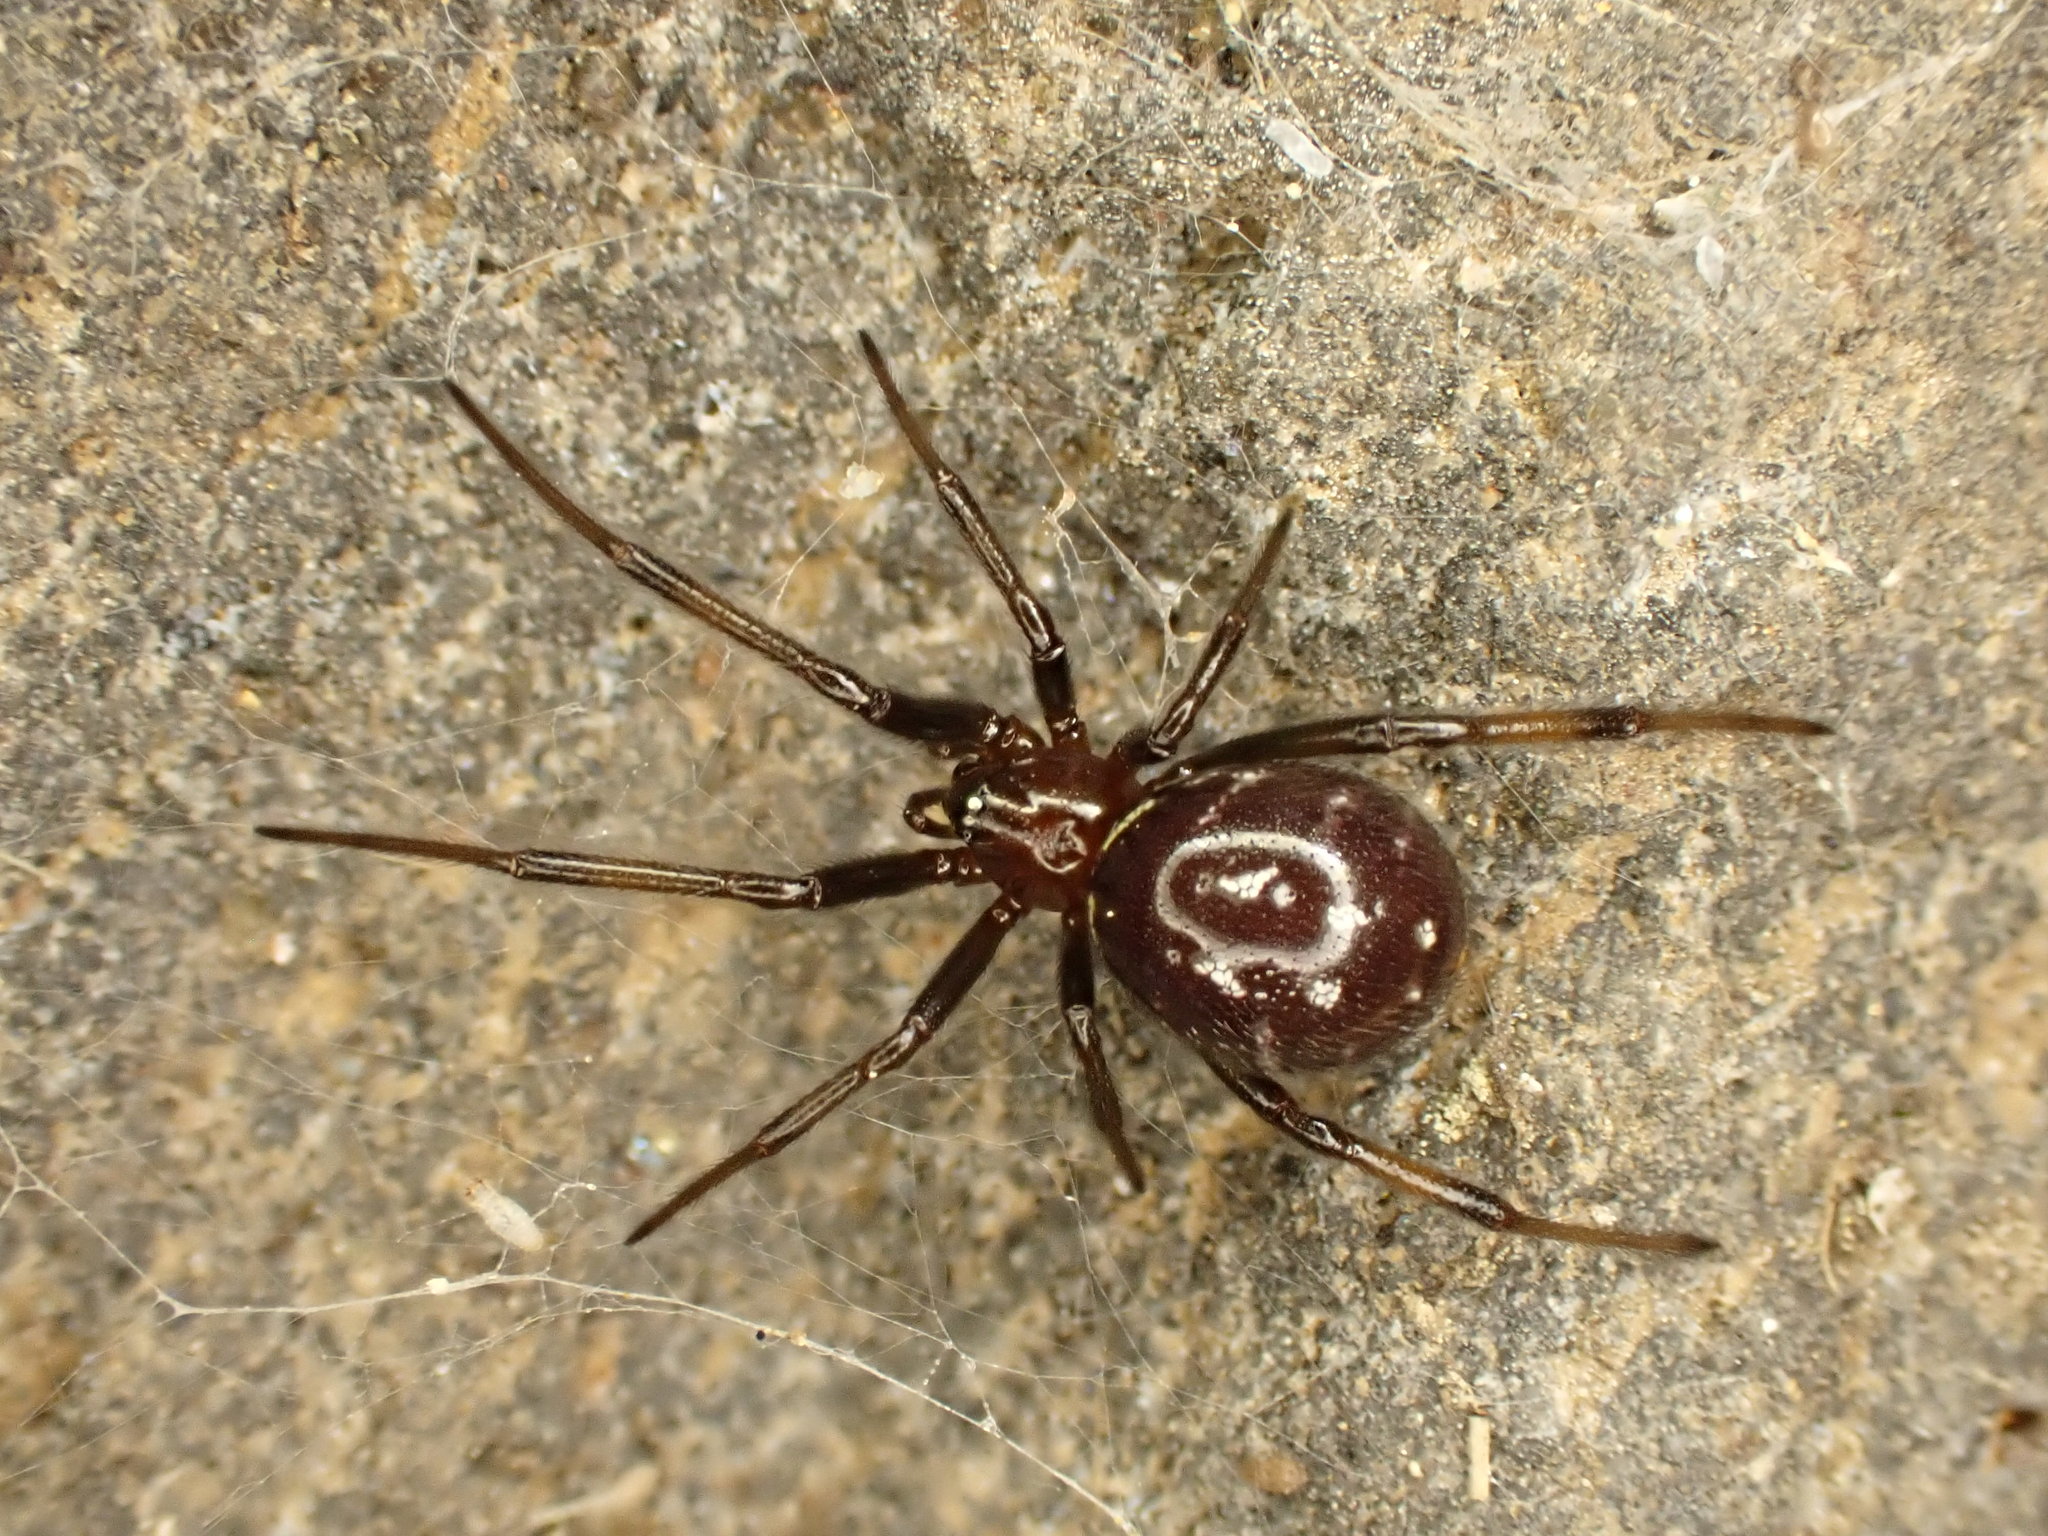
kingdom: Animalia
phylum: Arthropoda
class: Arachnida
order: Araneae
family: Theridiidae
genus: Steatoda
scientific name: Steatoda capensis
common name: Cobweb weaver
